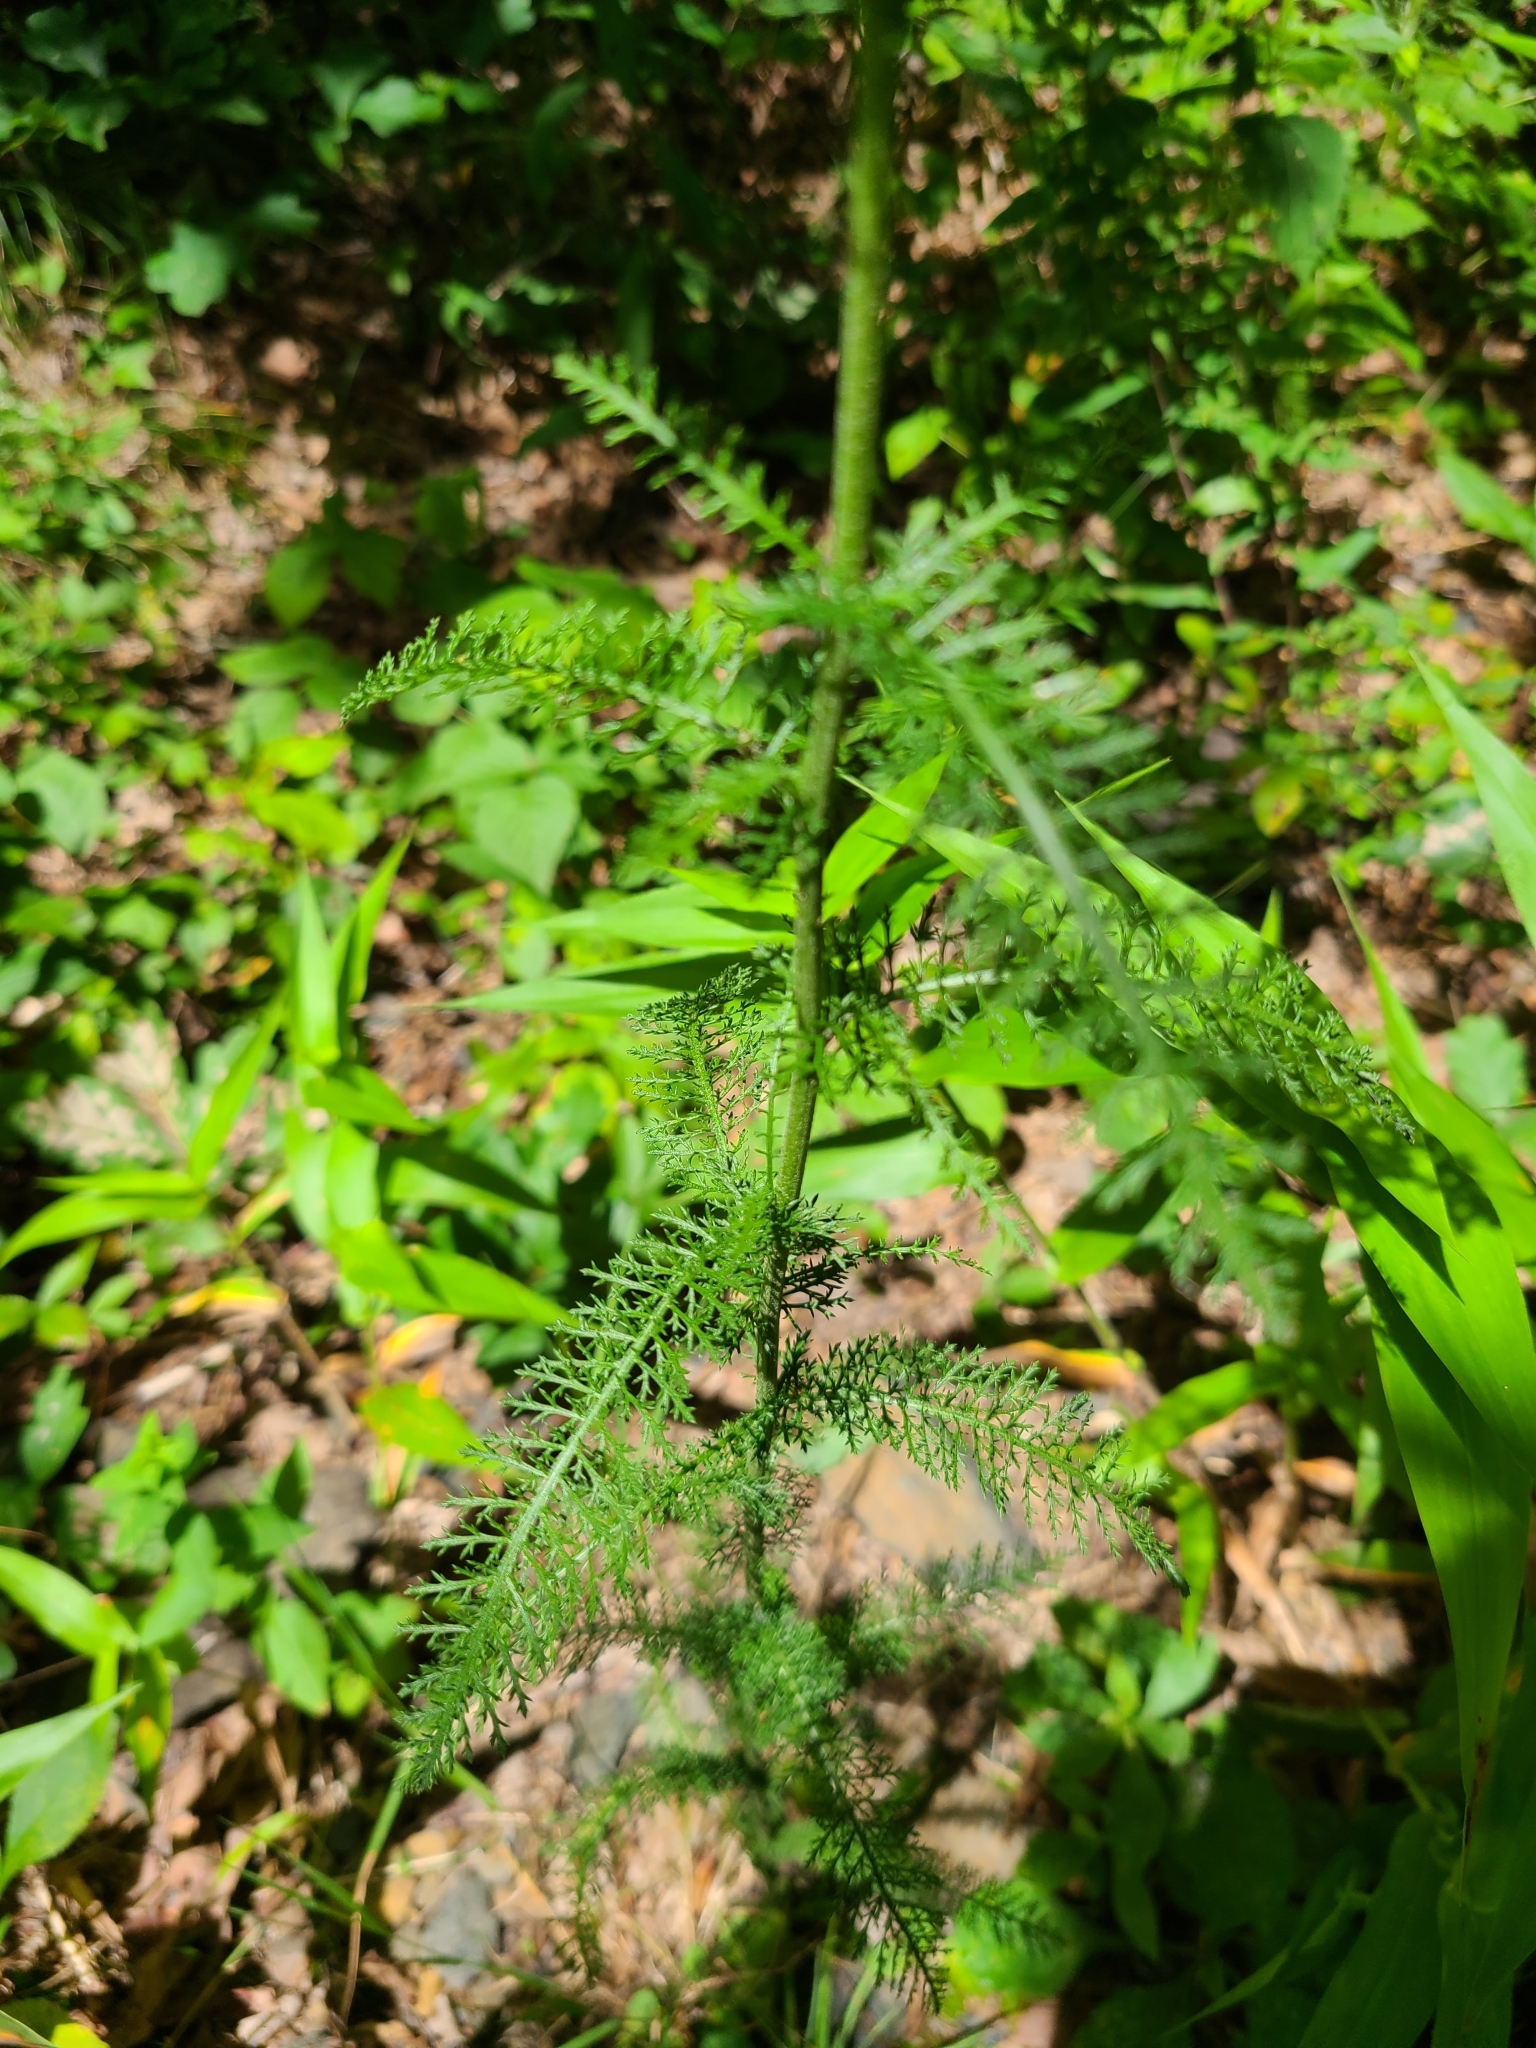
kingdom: Plantae
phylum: Tracheophyta
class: Magnoliopsida
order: Asterales
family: Asteraceae
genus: Achillea
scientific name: Achillea millefolium
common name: Yarrow
